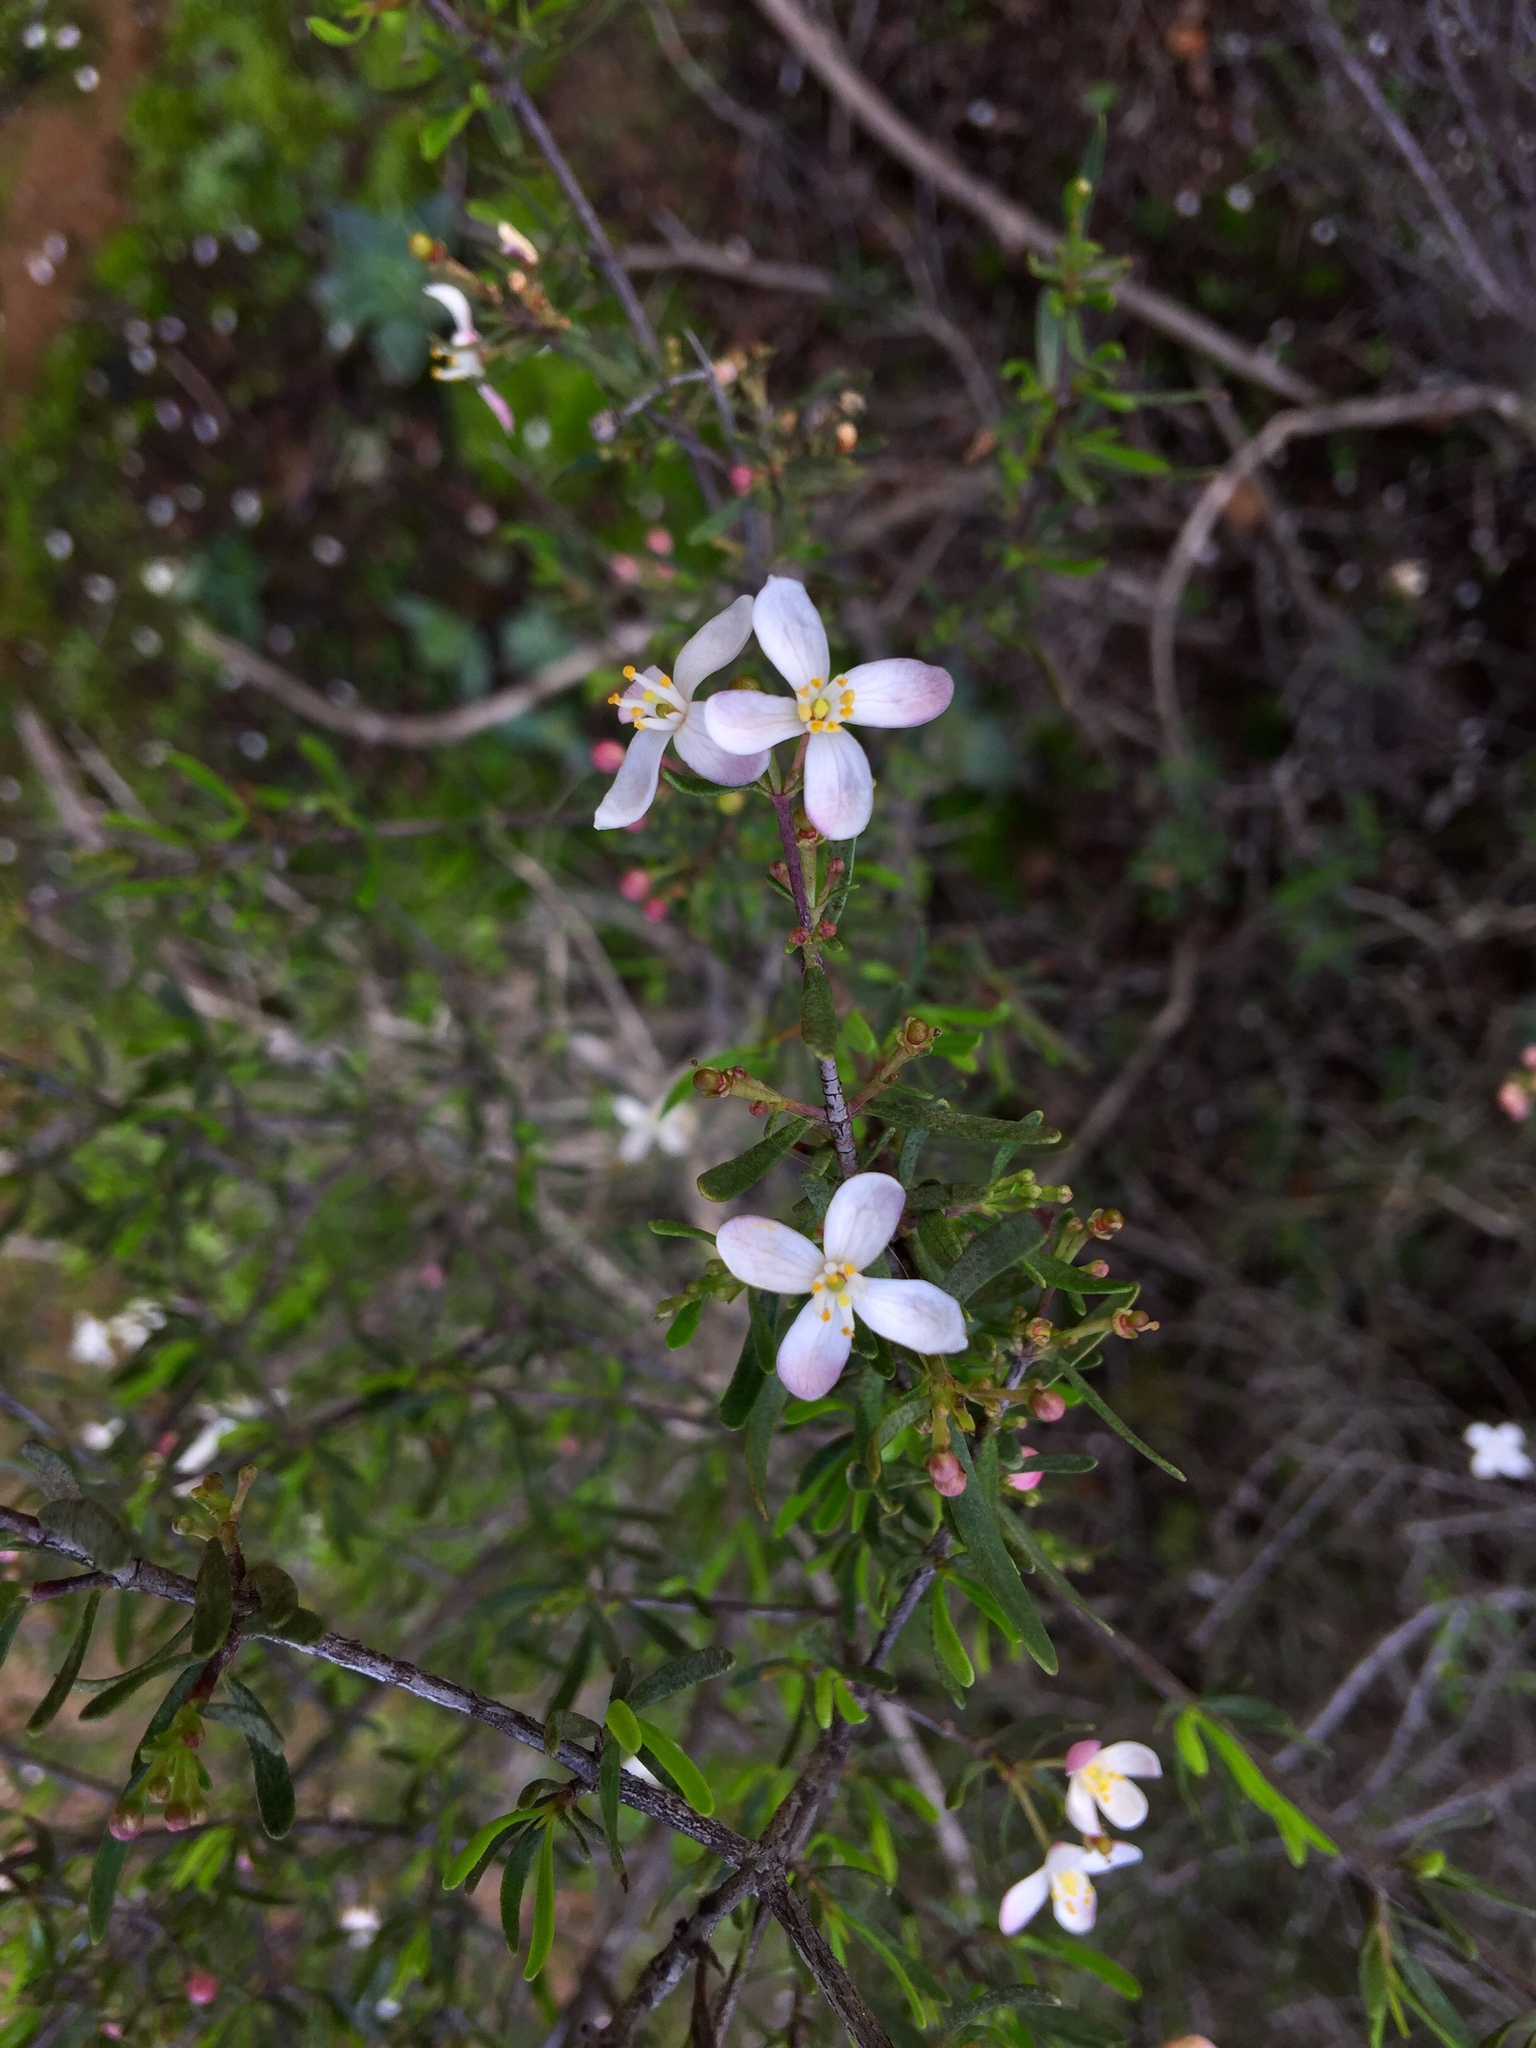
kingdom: Plantae
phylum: Tracheophyta
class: Magnoliopsida
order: Sapindales
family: Rutaceae
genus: Cneoridium
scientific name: Cneoridium dumosum
